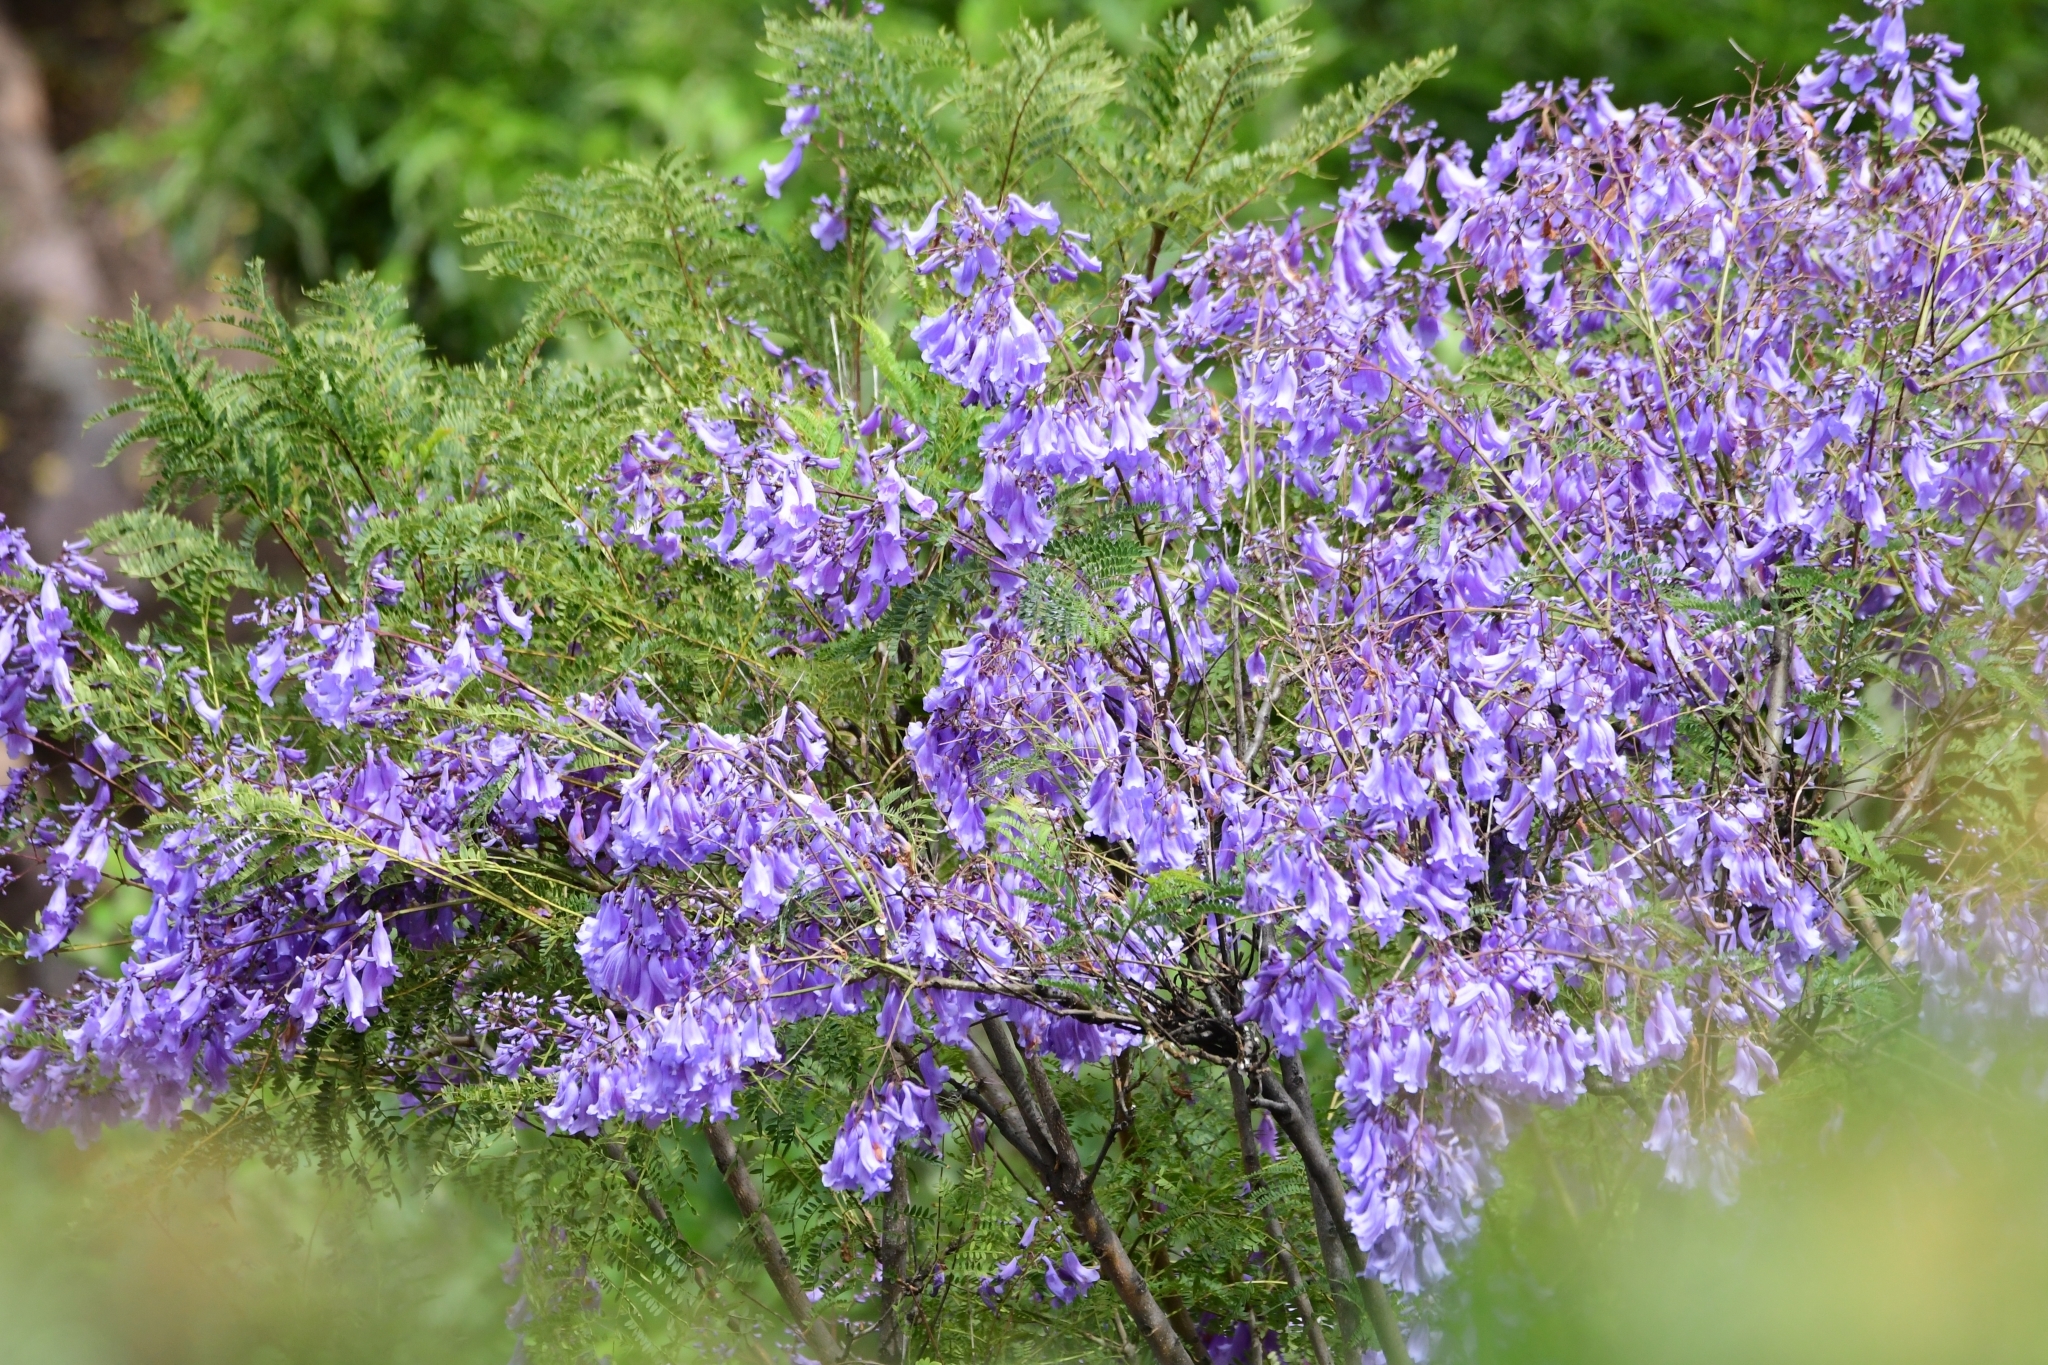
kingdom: Plantae
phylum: Tracheophyta
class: Magnoliopsida
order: Lamiales
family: Bignoniaceae
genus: Jacaranda
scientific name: Jacaranda mimosifolia
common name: Black poui
